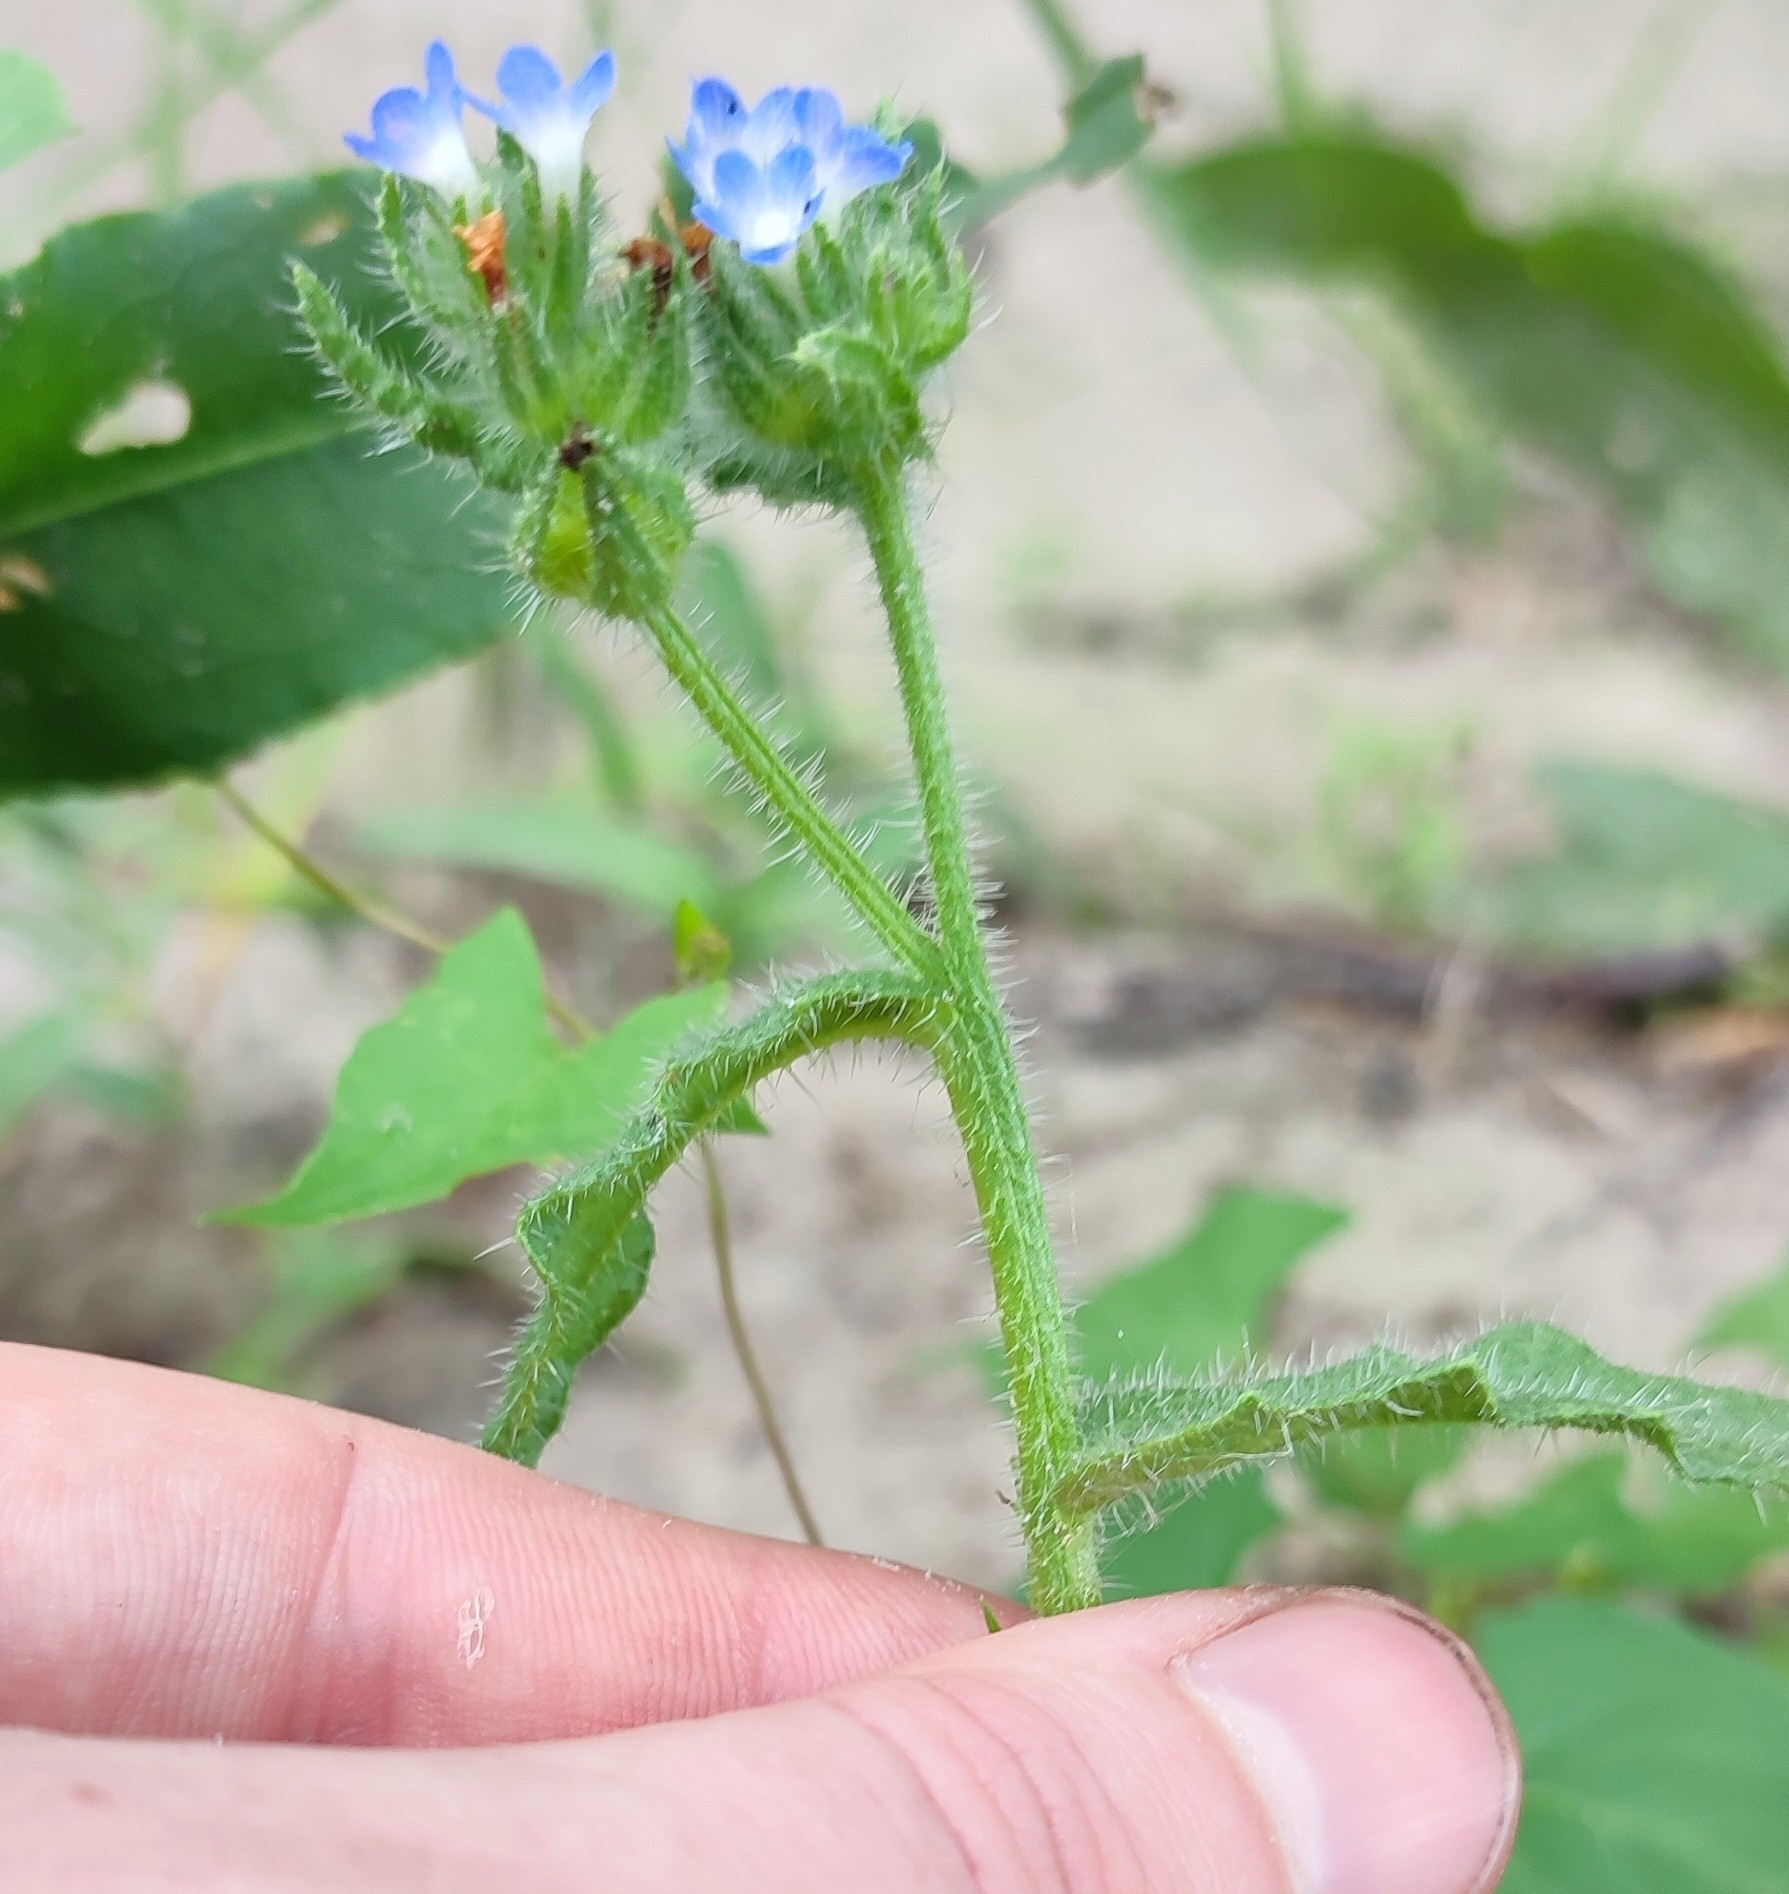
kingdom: Plantae
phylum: Tracheophyta
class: Magnoliopsida
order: Boraginales
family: Boraginaceae
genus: Lycopsis
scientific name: Lycopsis arvensis
